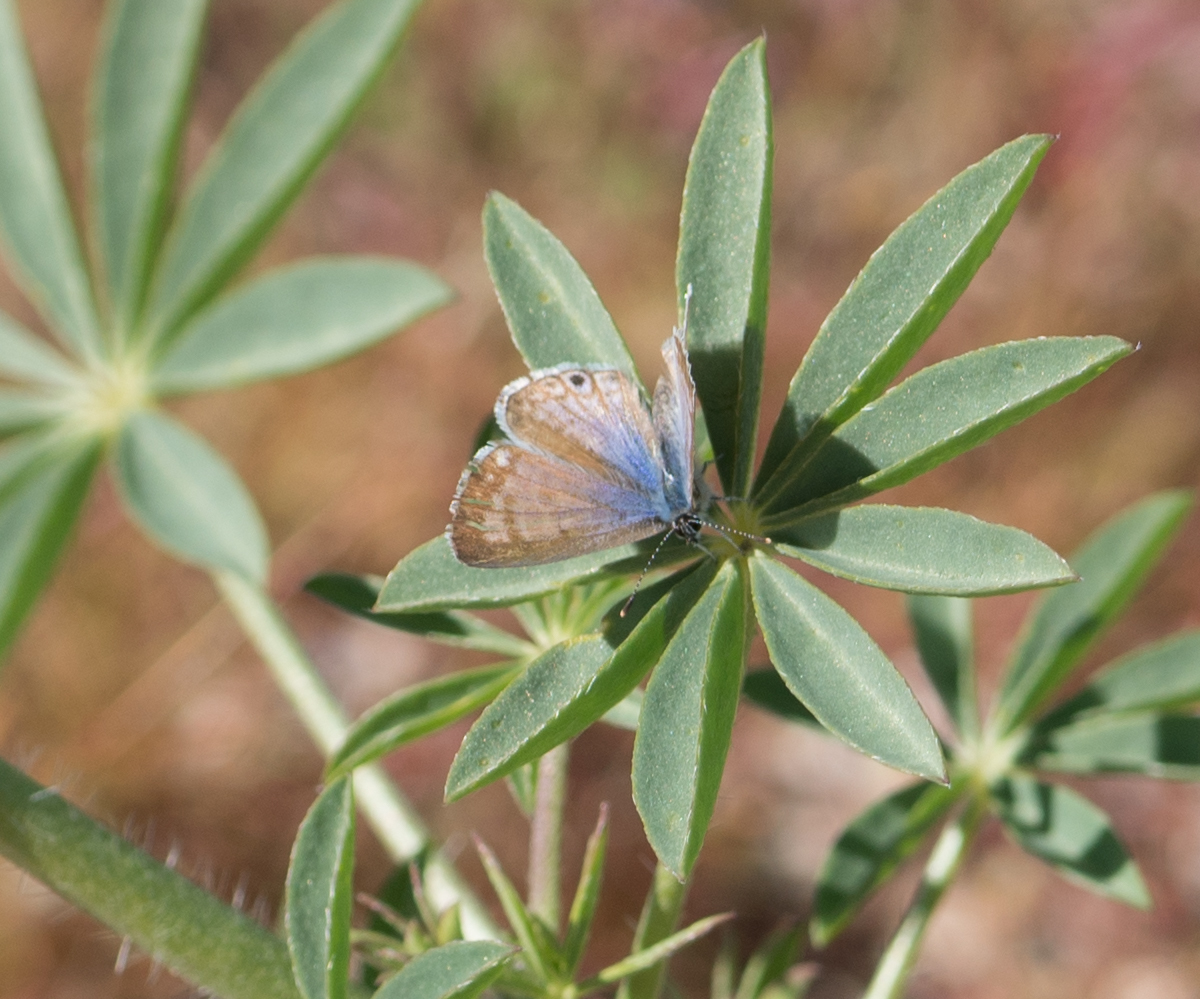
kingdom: Animalia
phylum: Arthropoda
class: Insecta
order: Lepidoptera
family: Lycaenidae
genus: Leptotes
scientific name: Leptotes marina
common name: Marine blue
